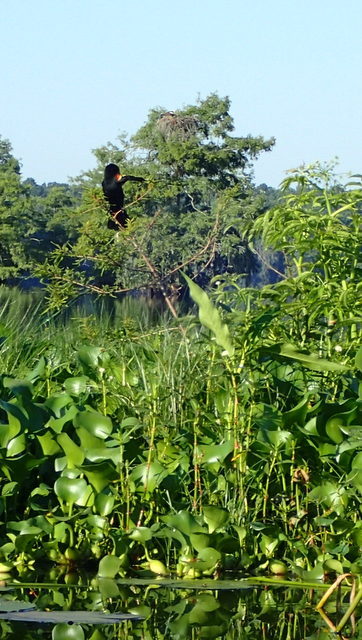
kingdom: Animalia
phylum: Chordata
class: Aves
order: Passeriformes
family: Icteridae
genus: Agelaius
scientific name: Agelaius phoeniceus
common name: Red-winged blackbird
